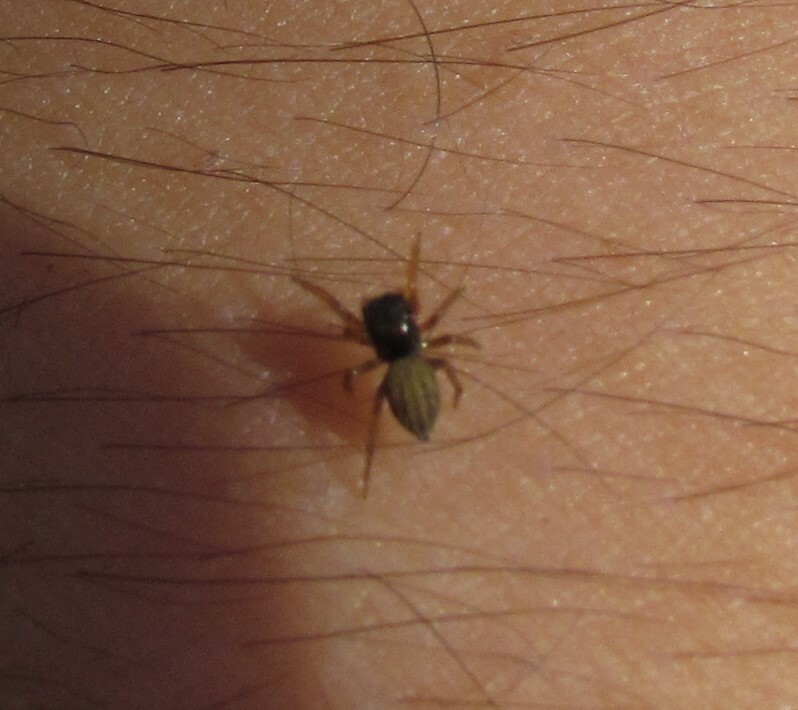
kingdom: Animalia
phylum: Arthropoda
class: Arachnida
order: Araneae
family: Salticidae
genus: Euophrys
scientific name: Euophrys melanoleuca
